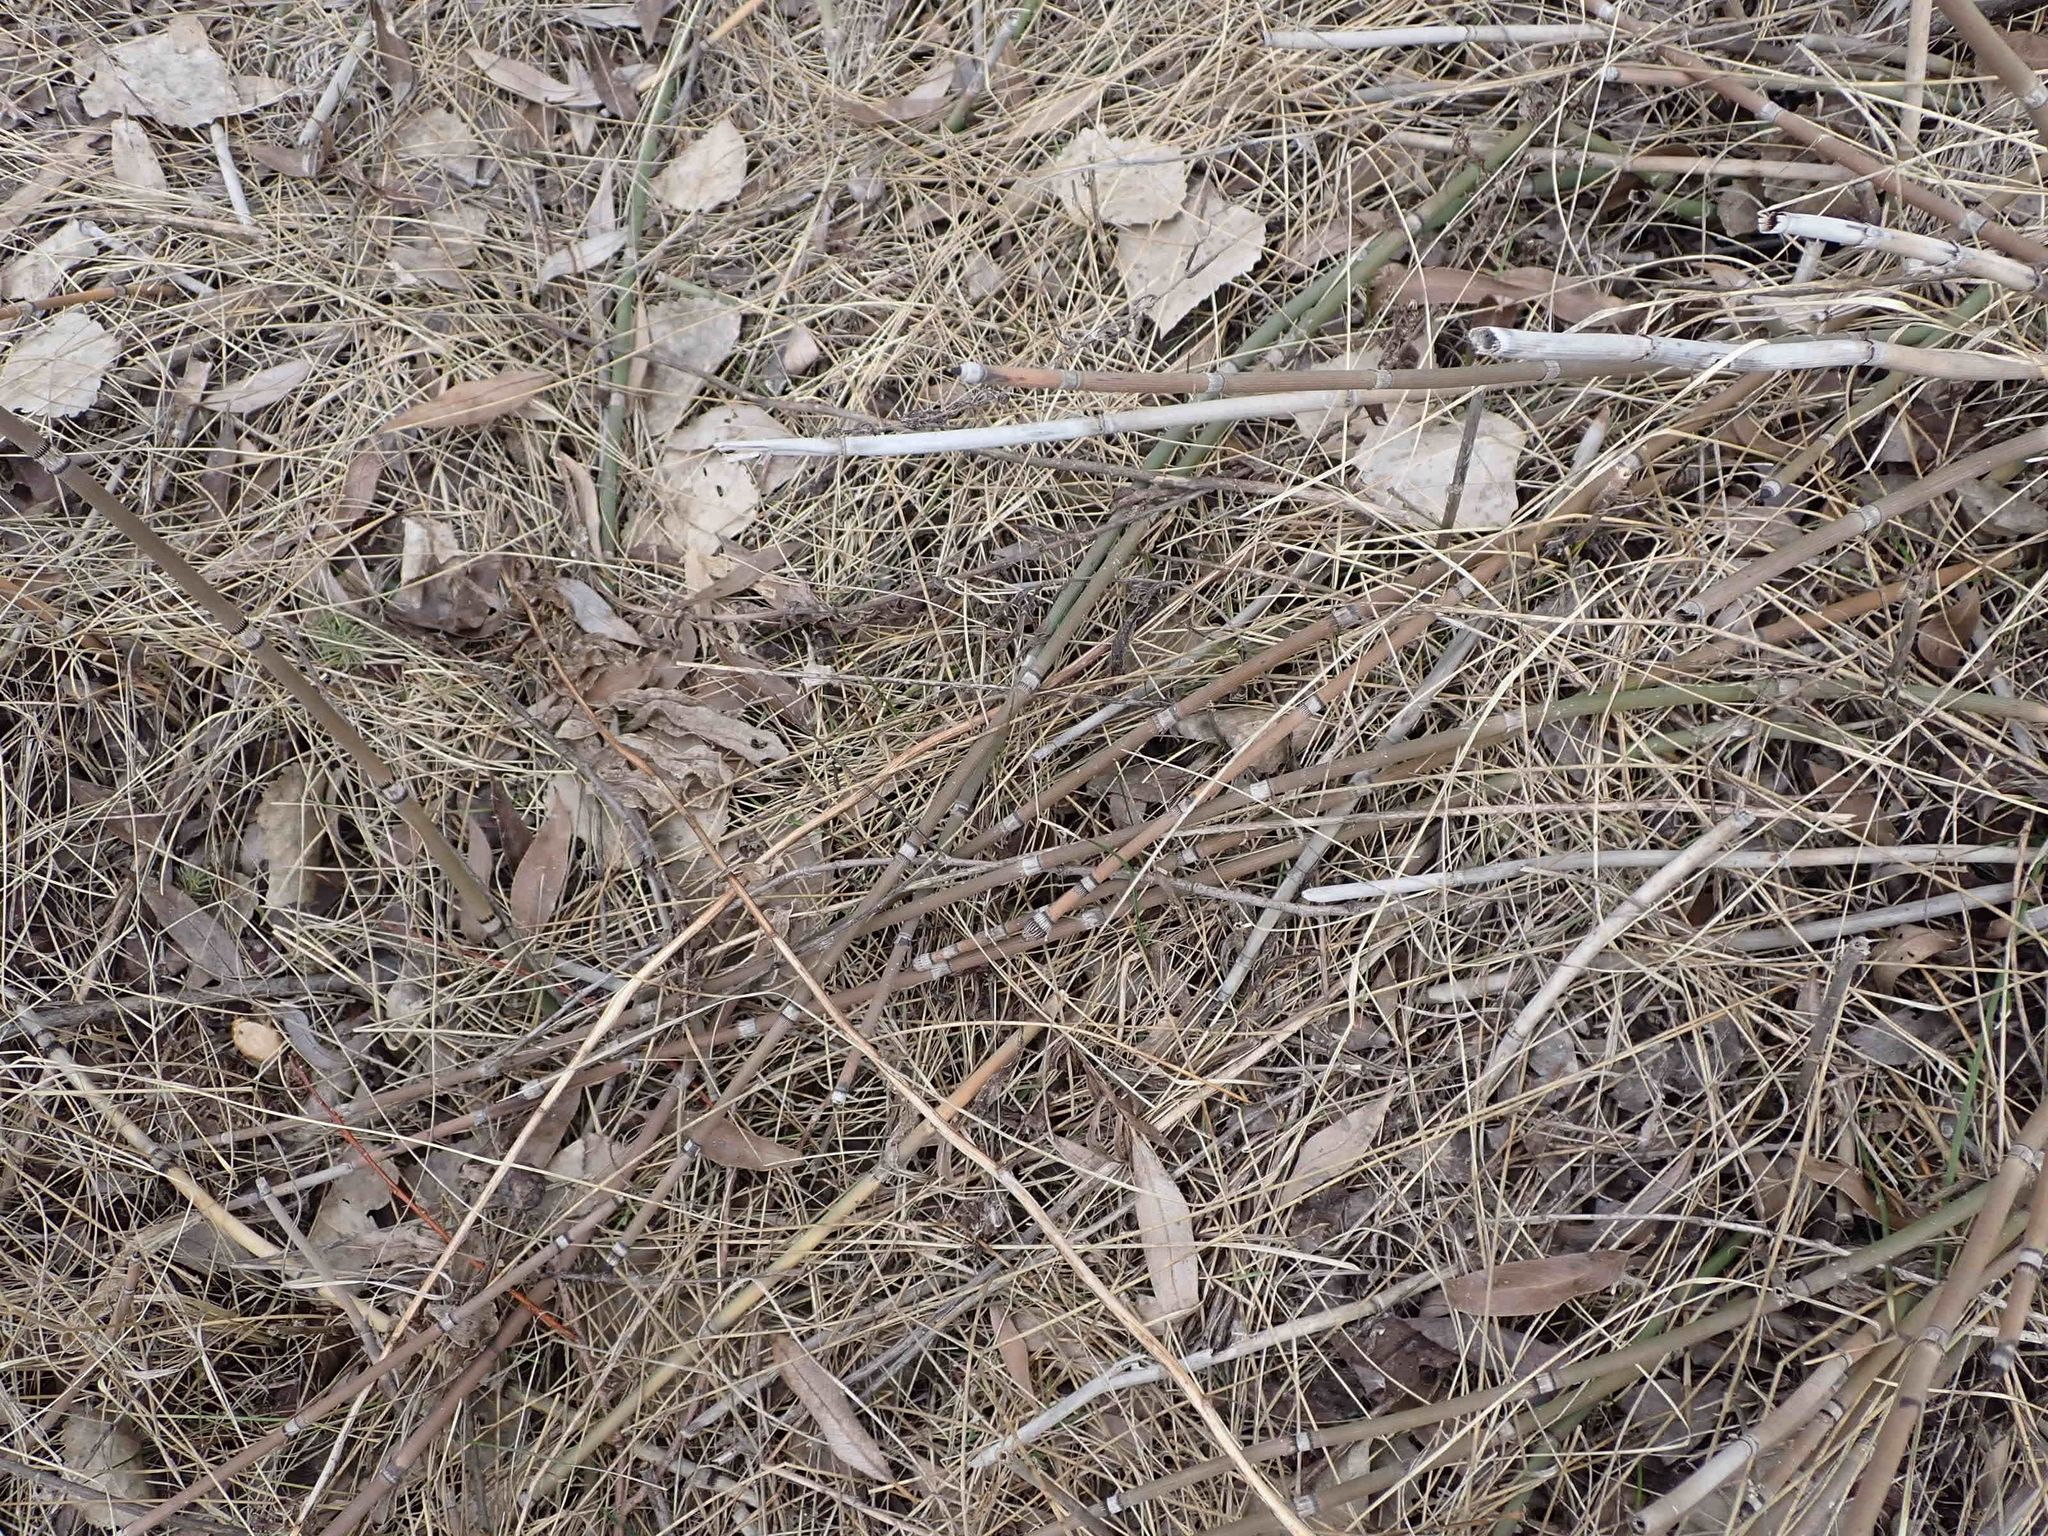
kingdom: Plantae
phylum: Tracheophyta
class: Polypodiopsida
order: Equisetales
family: Equisetaceae
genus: Equisetum
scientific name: Equisetum praealtum
